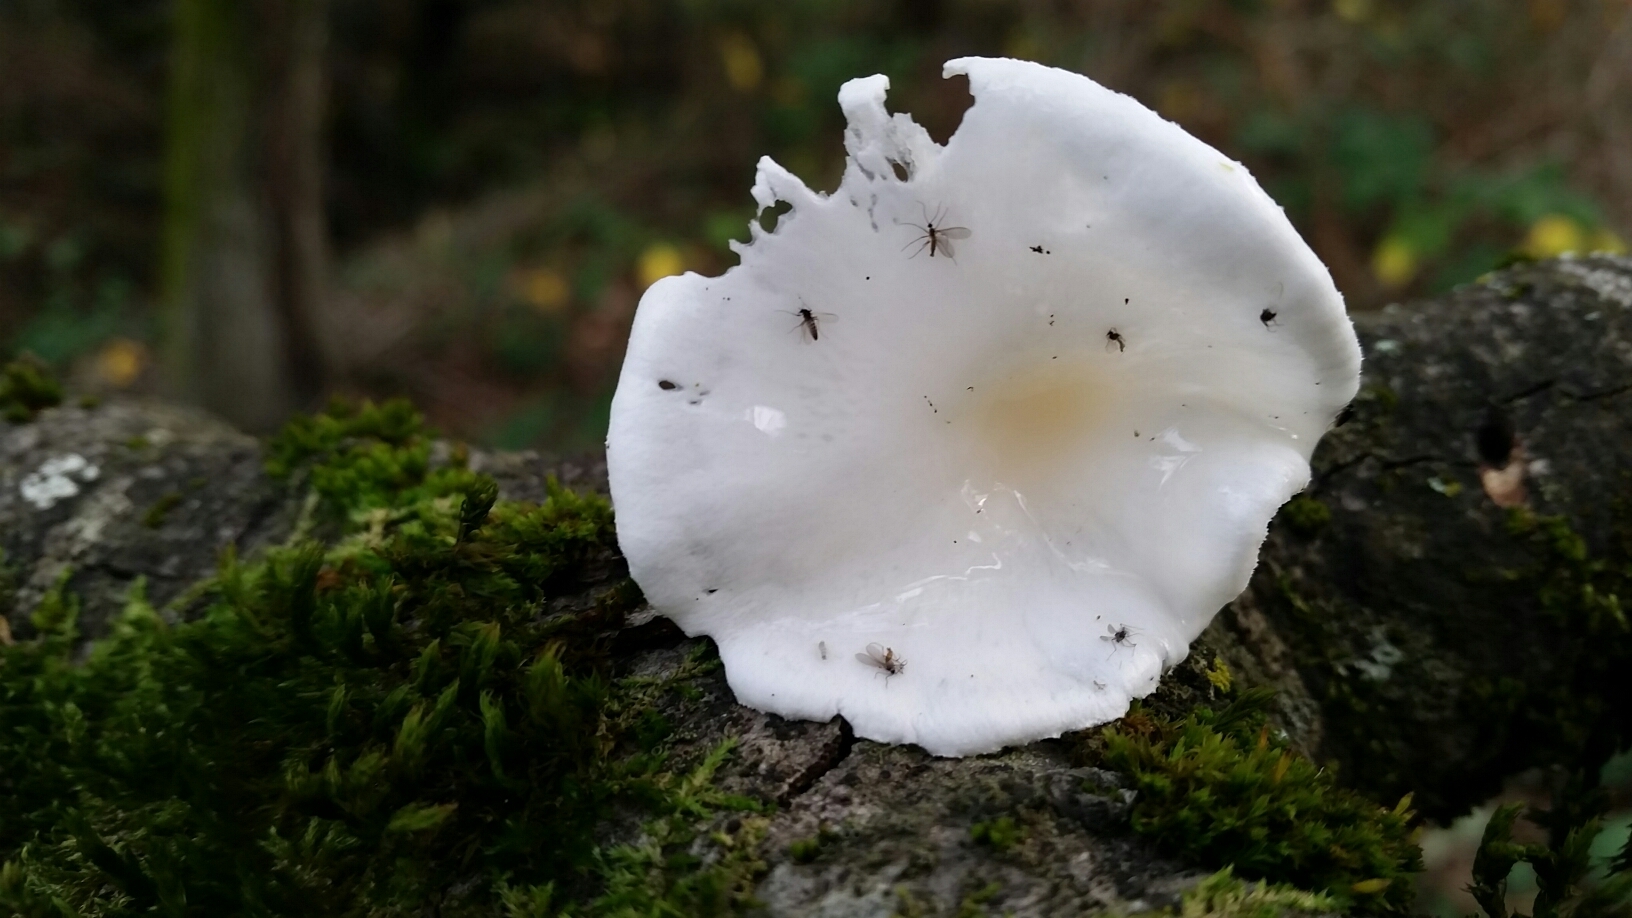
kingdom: Fungi
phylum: Basidiomycota
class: Agaricomycetes
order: Agaricales
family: Hygrophoraceae
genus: Hygrophorus
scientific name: Hygrophorus eburneus
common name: Ivory wax-cap
